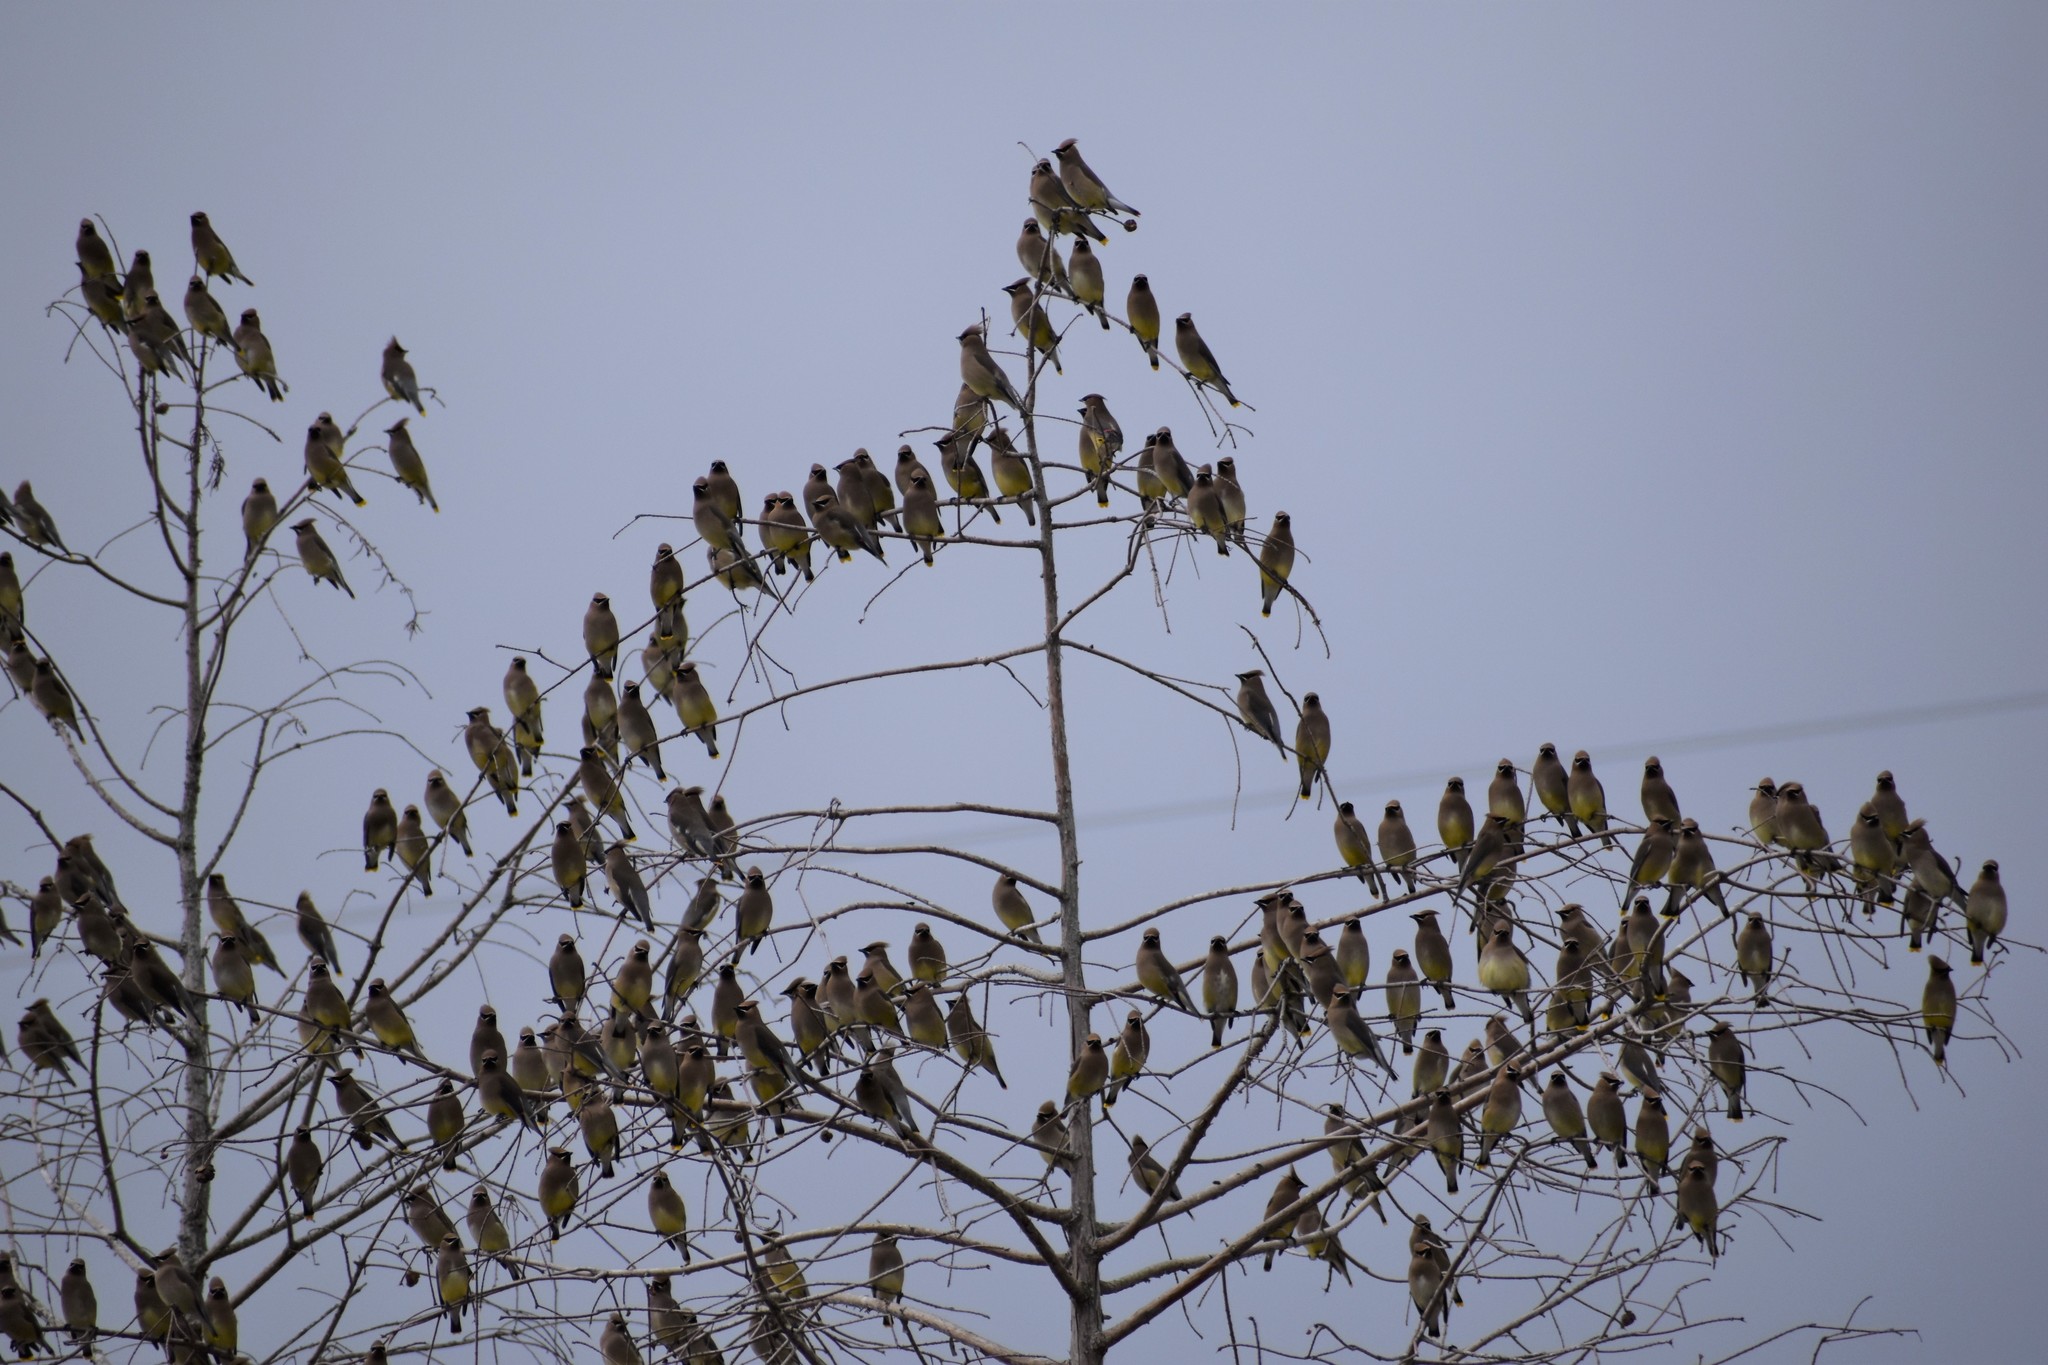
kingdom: Animalia
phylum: Chordata
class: Aves
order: Passeriformes
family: Bombycillidae
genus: Bombycilla
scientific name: Bombycilla cedrorum
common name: Cedar waxwing
